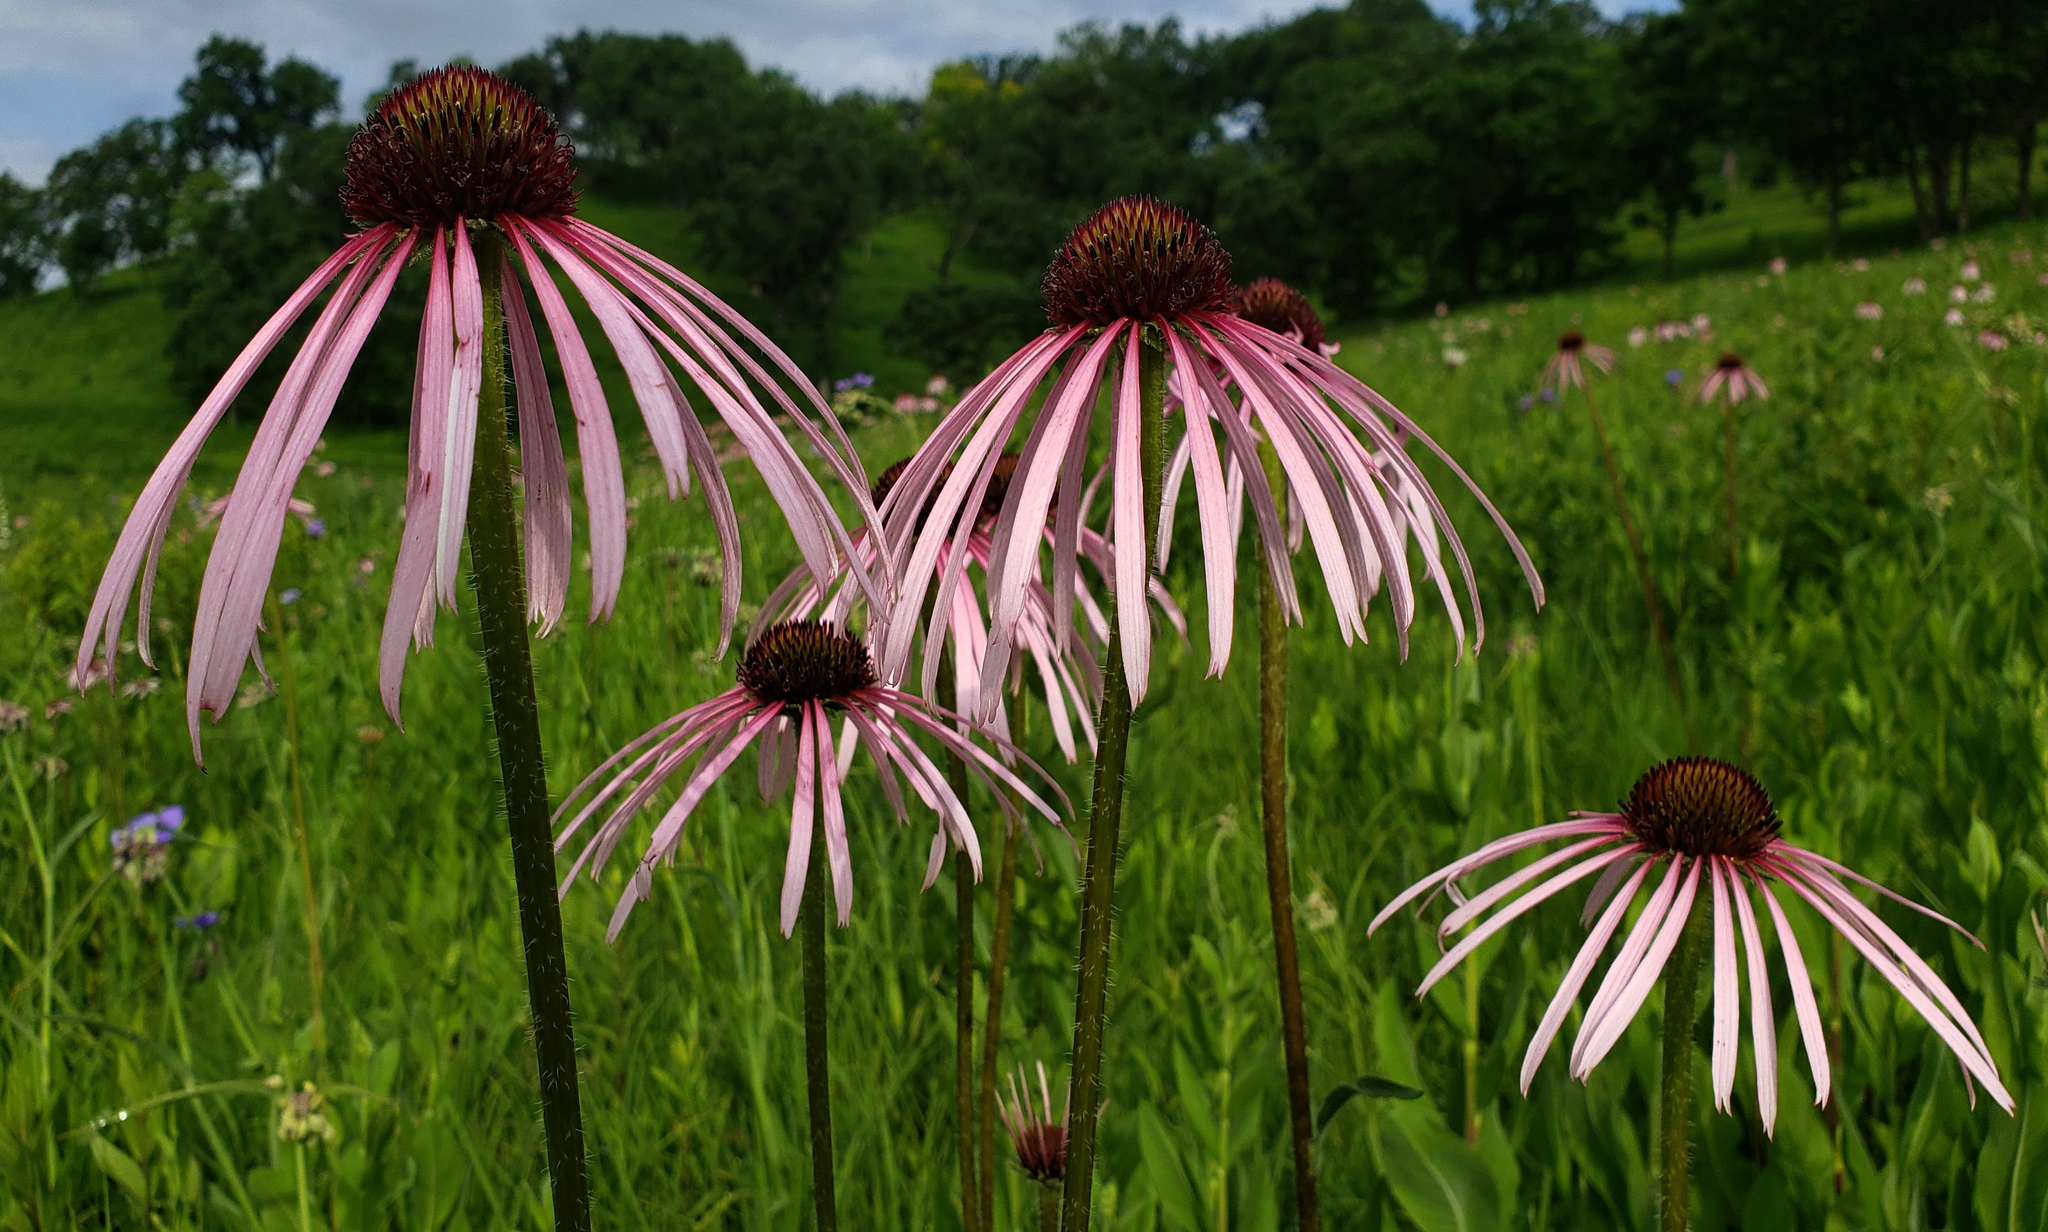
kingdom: Plantae
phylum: Tracheophyta
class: Magnoliopsida
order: Asterales
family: Asteraceae
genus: Echinacea
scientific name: Echinacea pallida
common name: Pale echinacea
